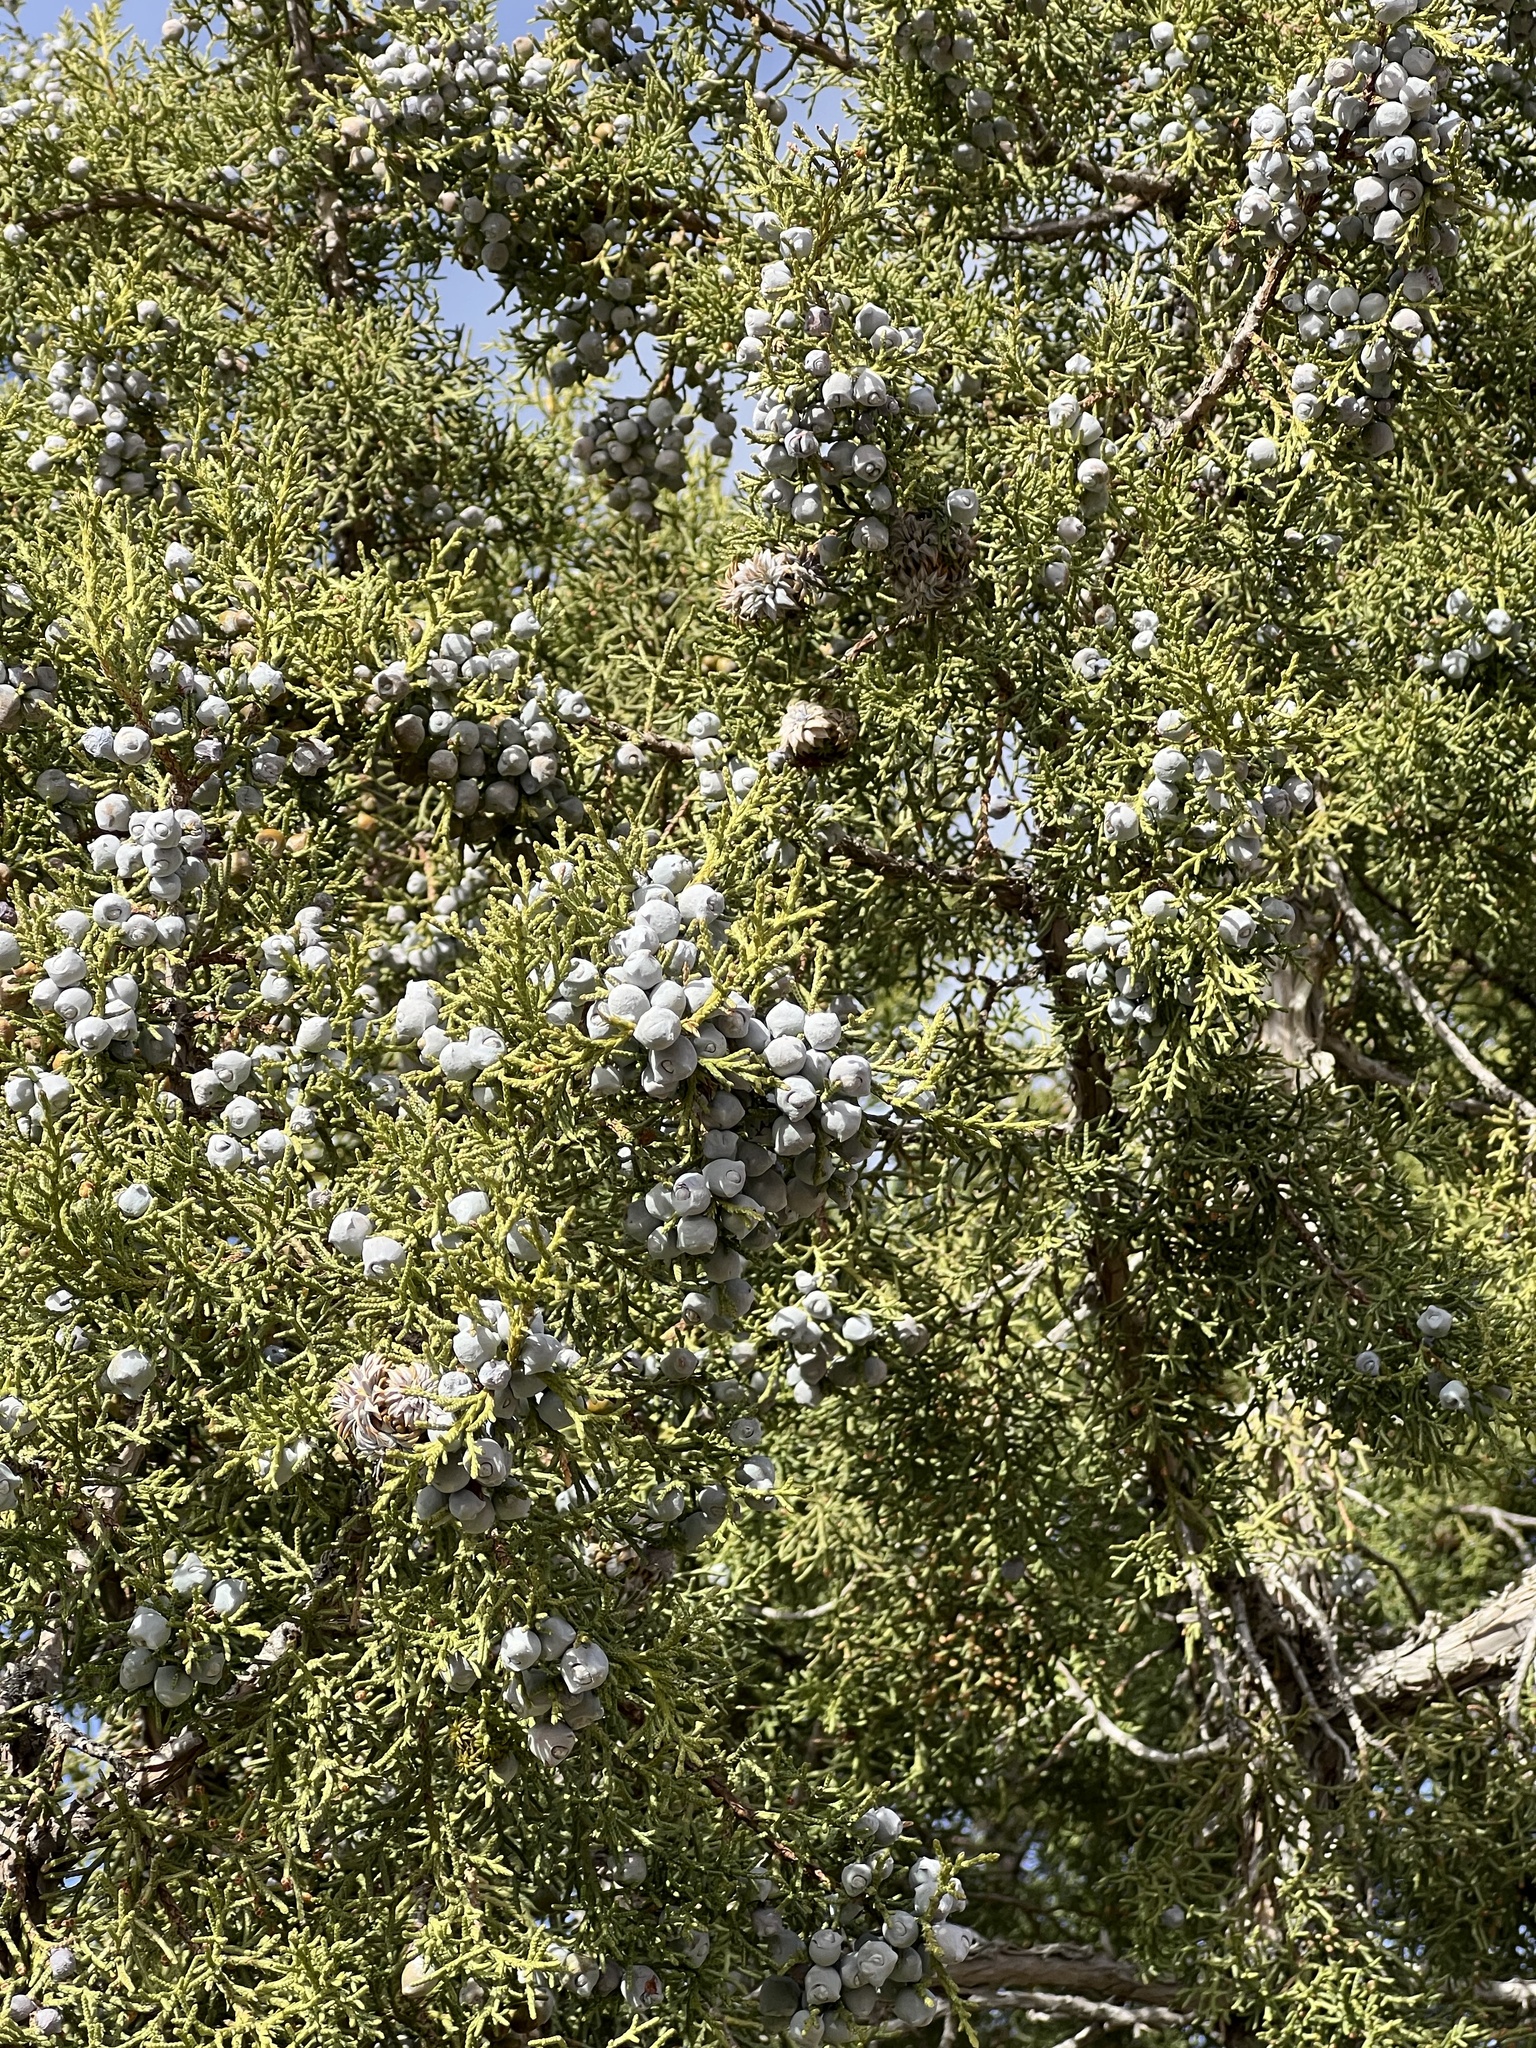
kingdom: Plantae
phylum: Tracheophyta
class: Pinopsida
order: Pinales
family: Cupressaceae
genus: Juniperus
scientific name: Juniperus osteosperma
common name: Utah juniper
